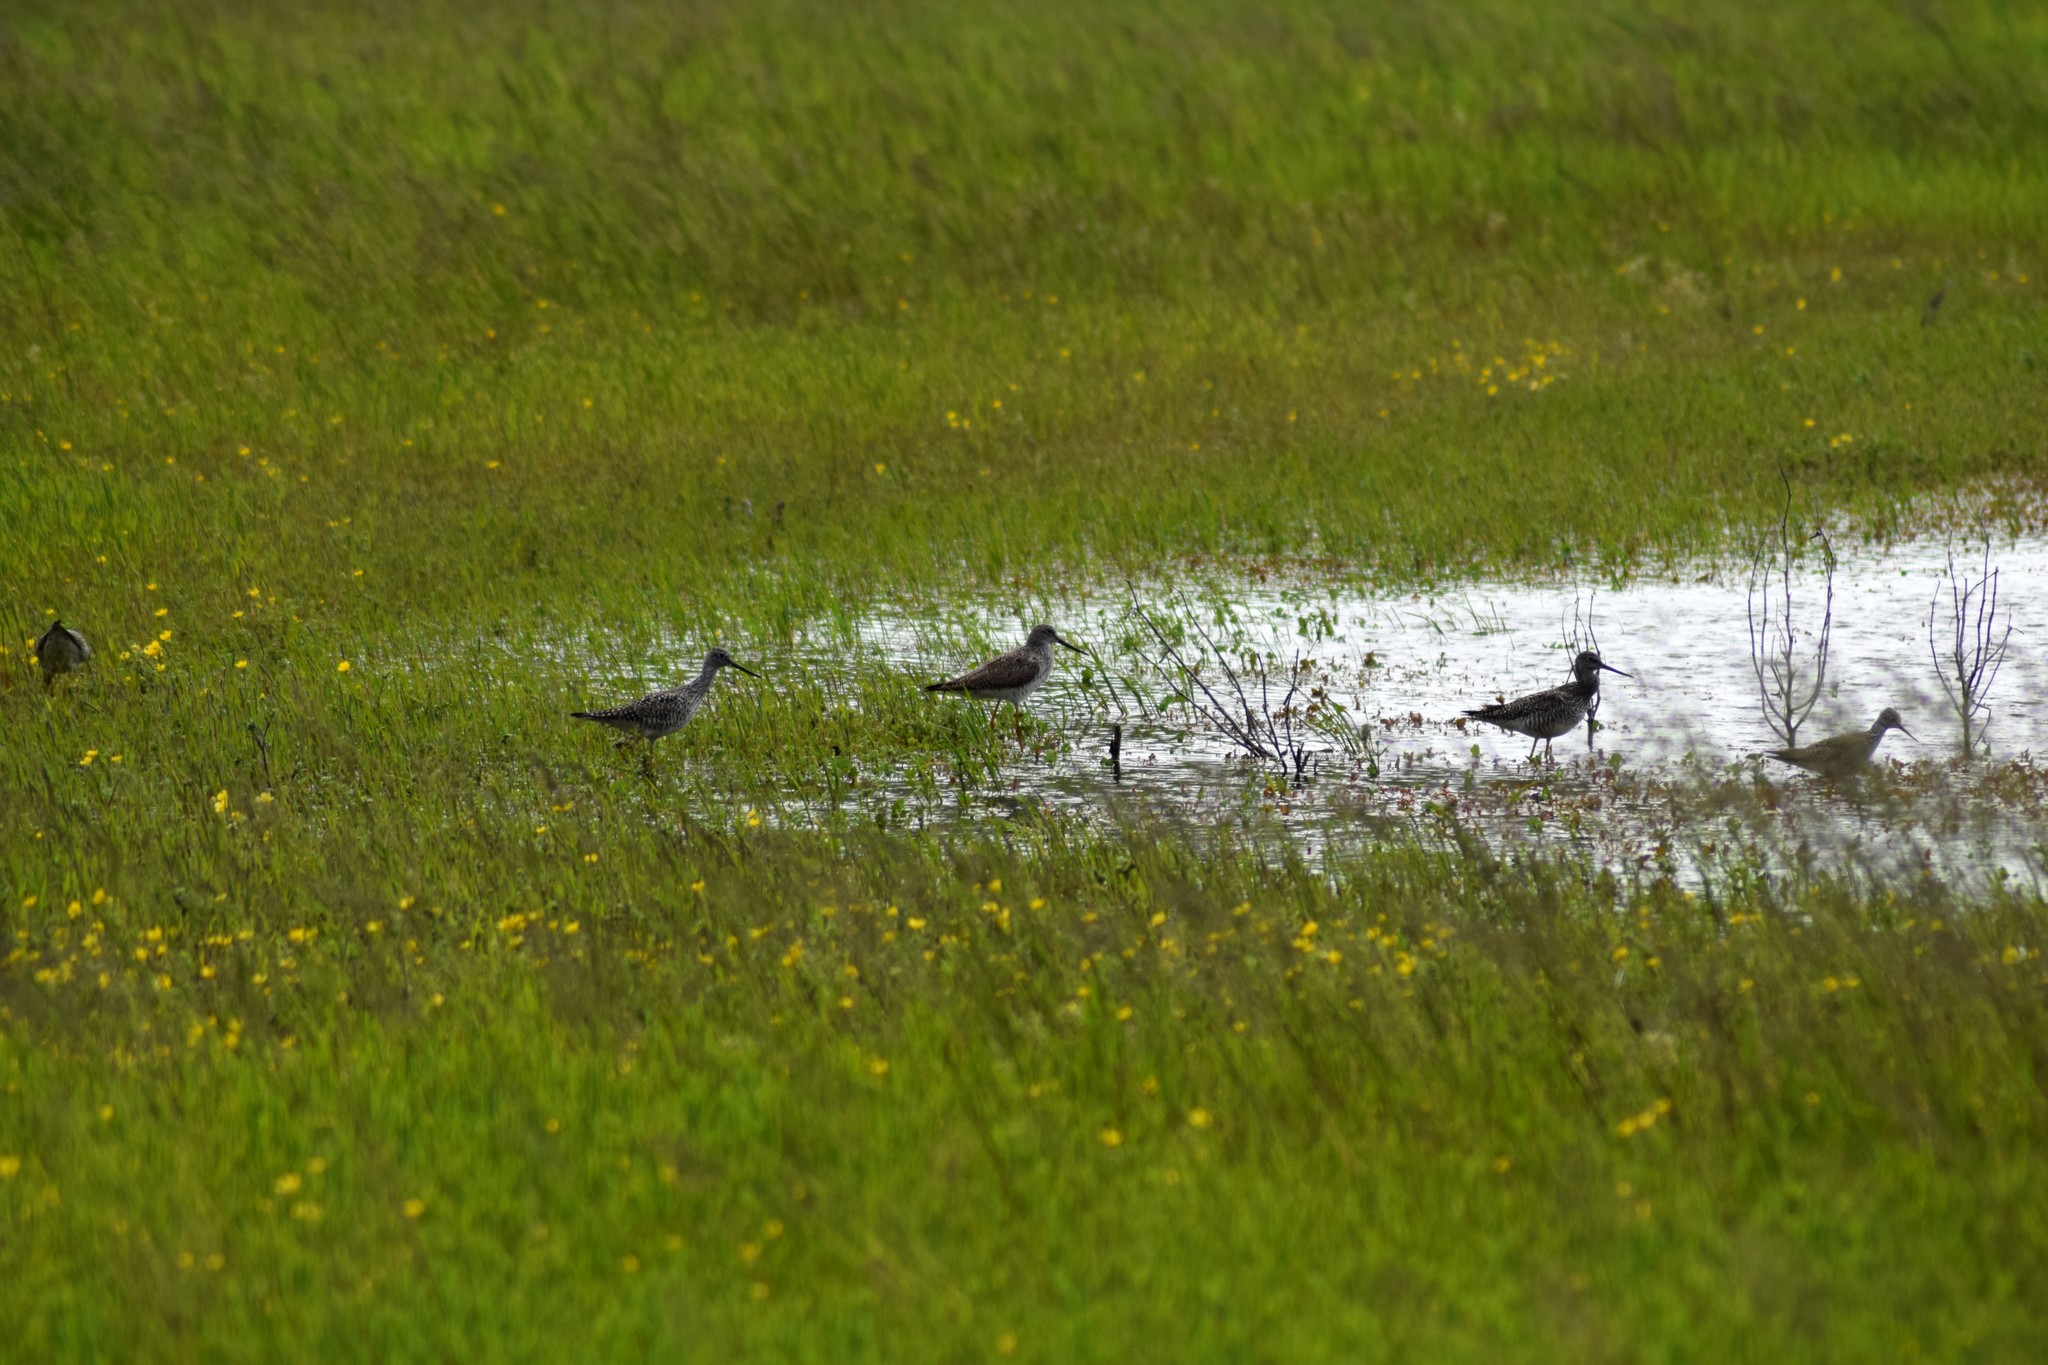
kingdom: Animalia
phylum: Chordata
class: Aves
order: Charadriiformes
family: Scolopacidae
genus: Tringa
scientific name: Tringa melanoleuca
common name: Greater yellowlegs
